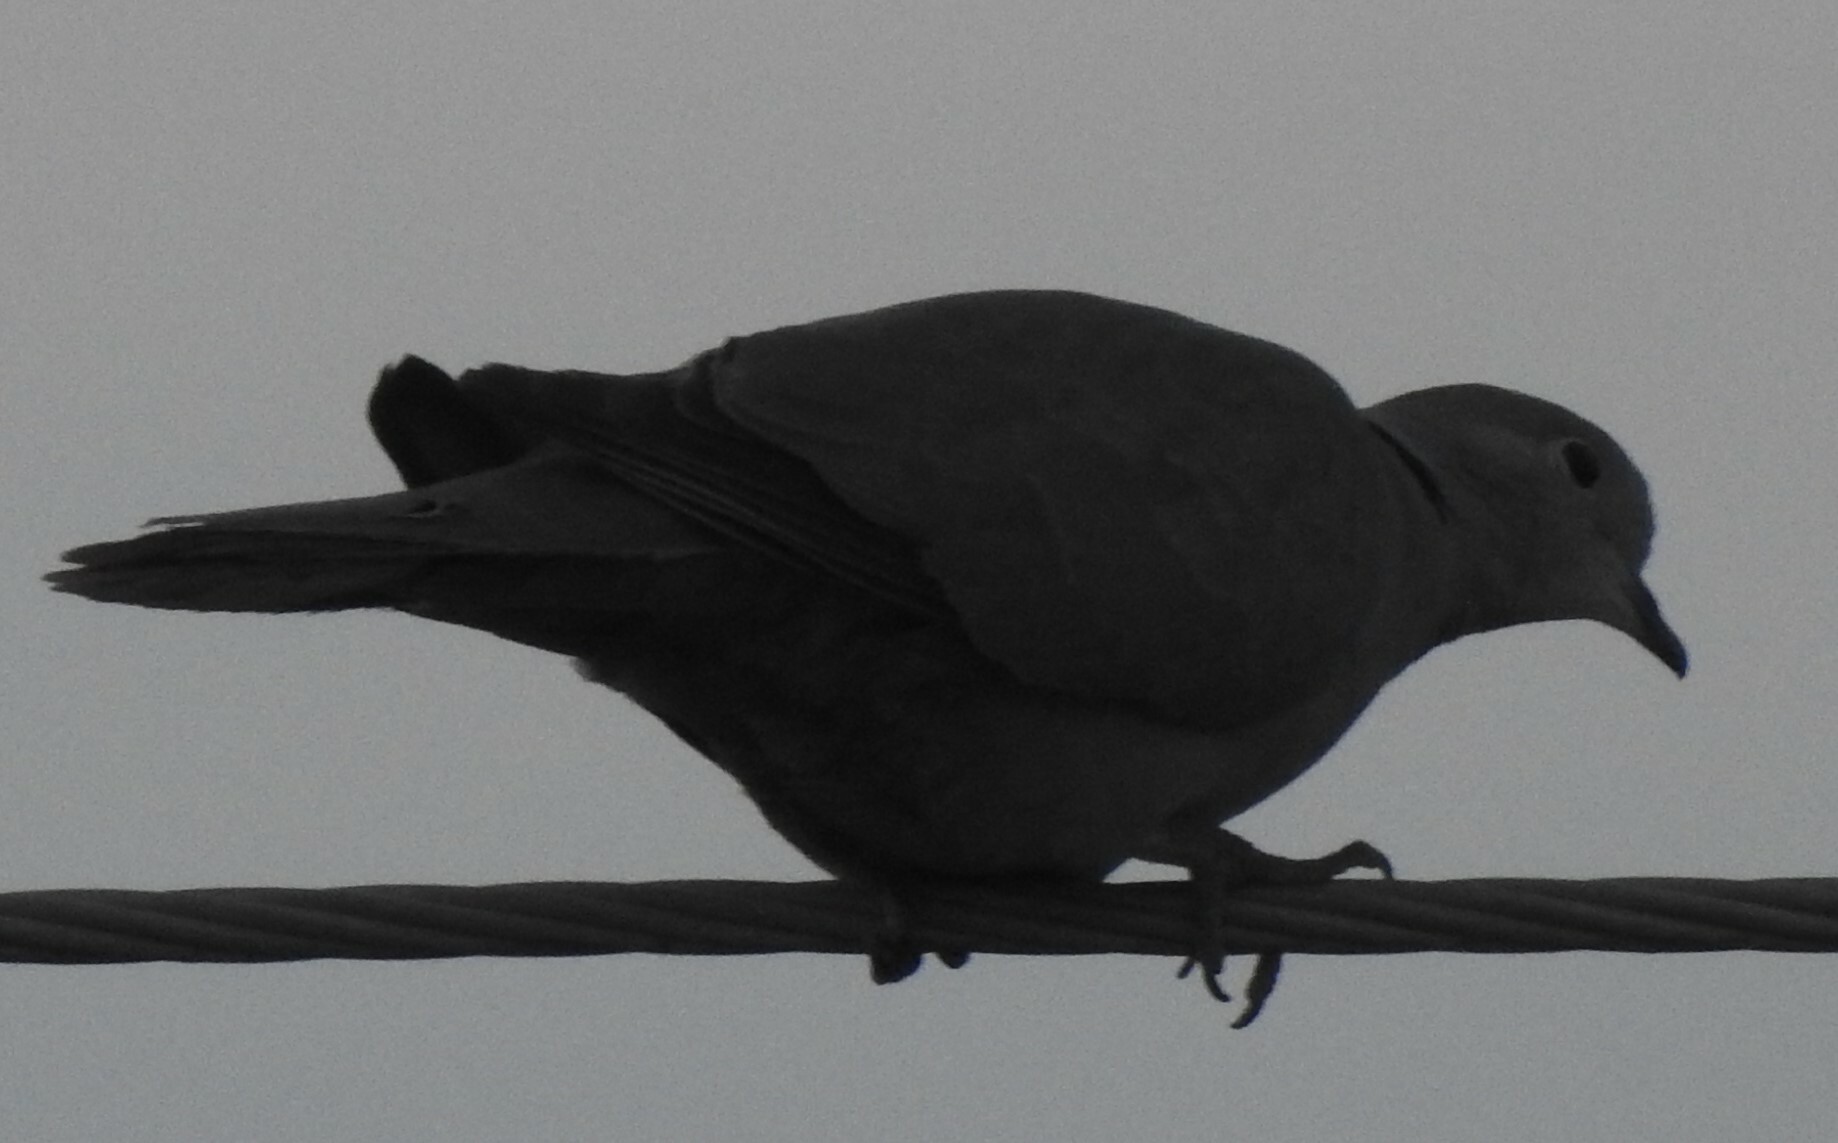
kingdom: Animalia
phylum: Chordata
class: Aves
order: Columbiformes
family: Columbidae
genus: Streptopelia
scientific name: Streptopelia decaocto
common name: Eurasian collared dove
